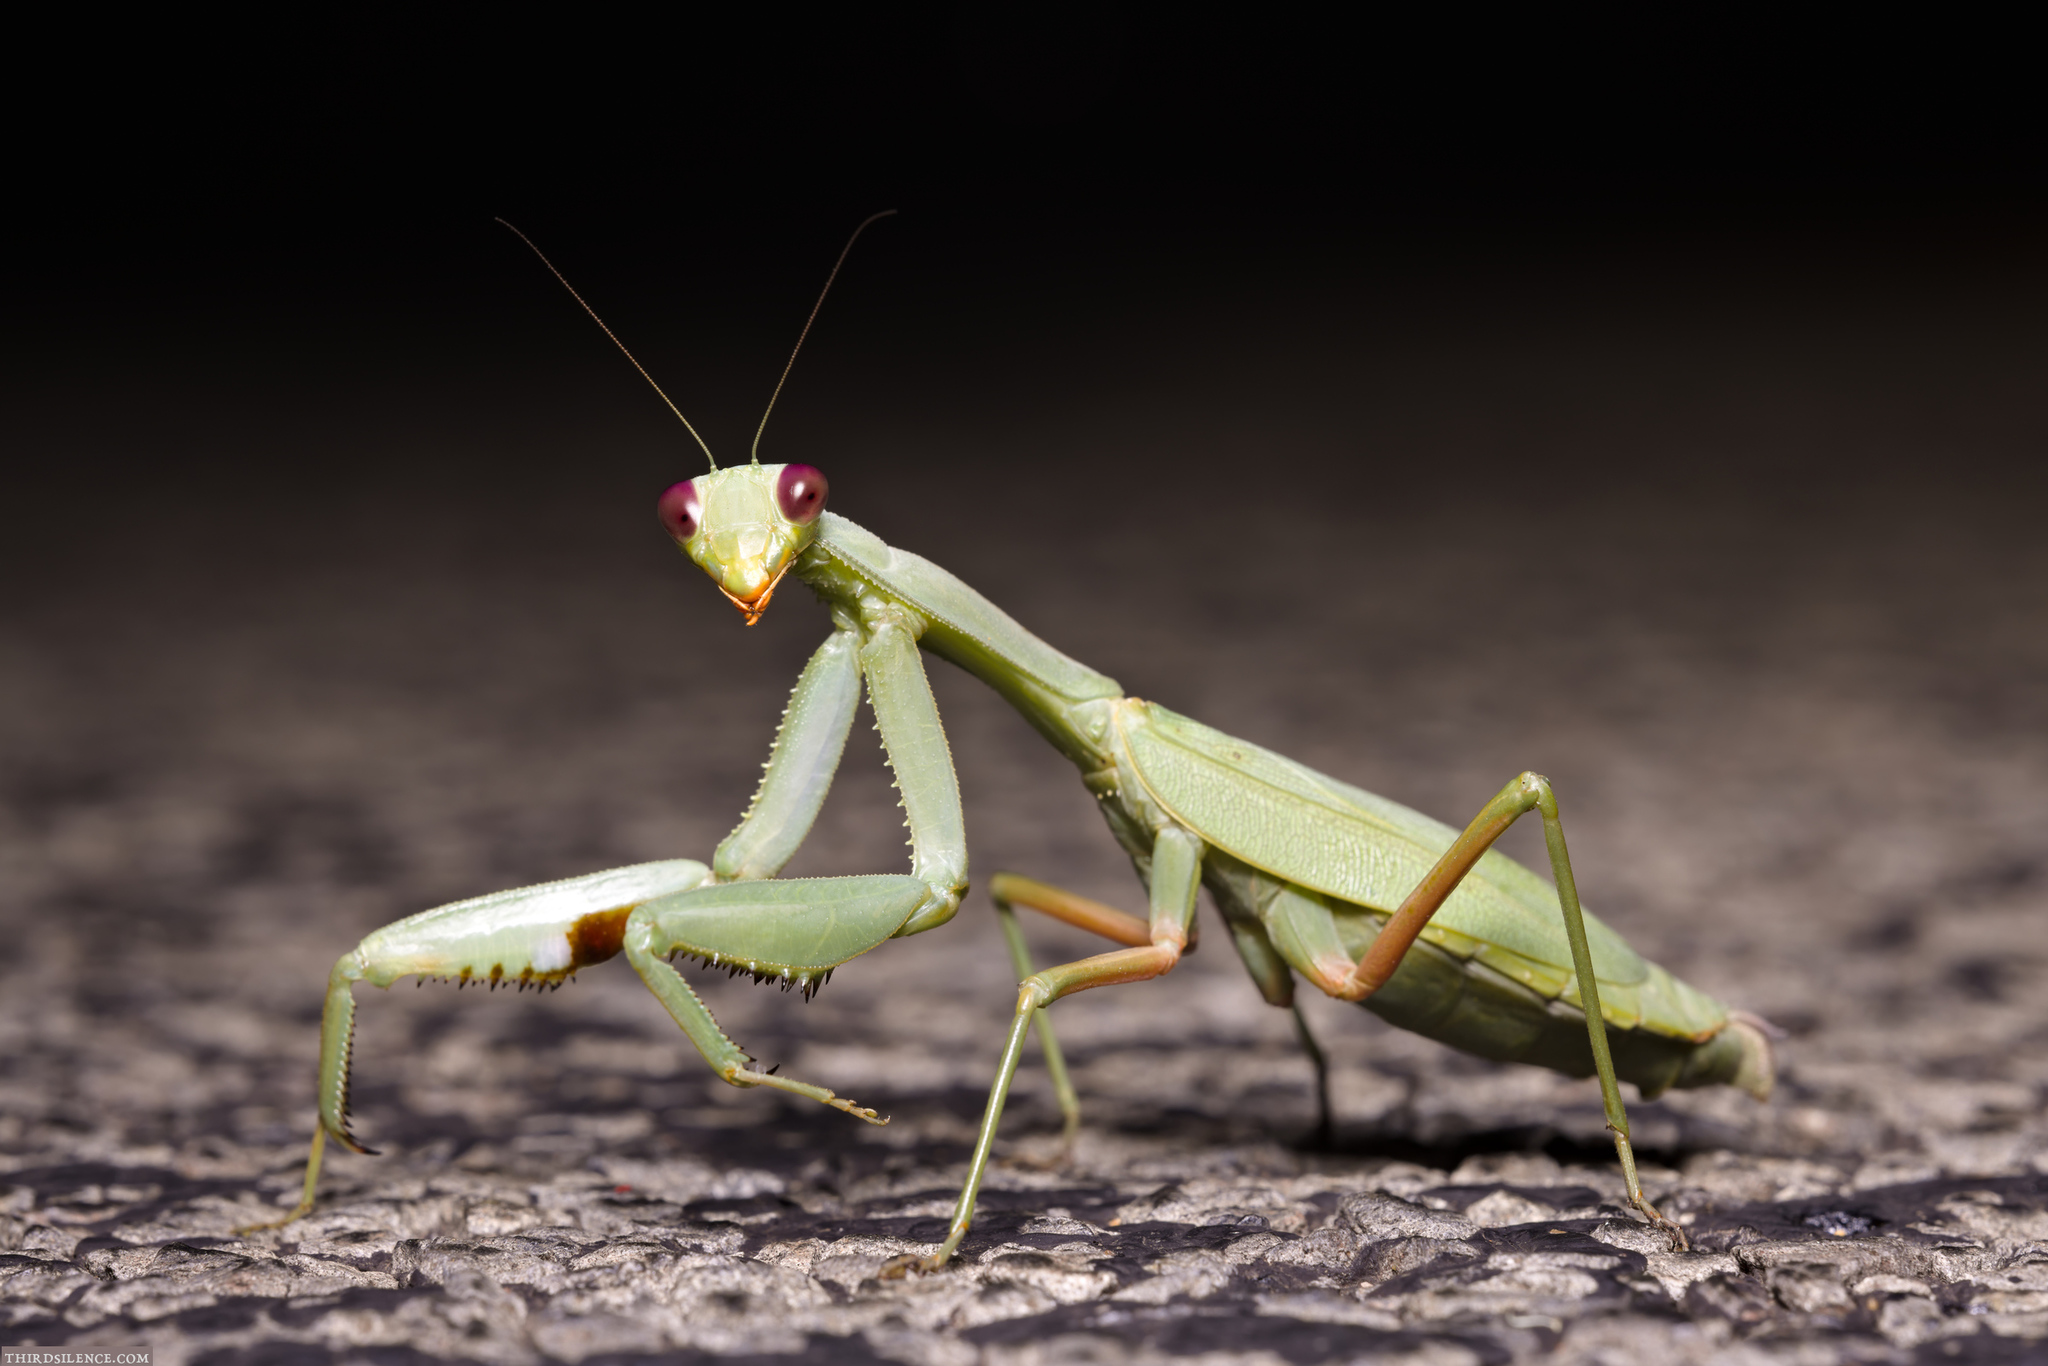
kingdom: Animalia
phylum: Arthropoda
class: Insecta
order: Mantodea
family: Mantidae
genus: Trachymantis
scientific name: Trachymantis dentifrons
